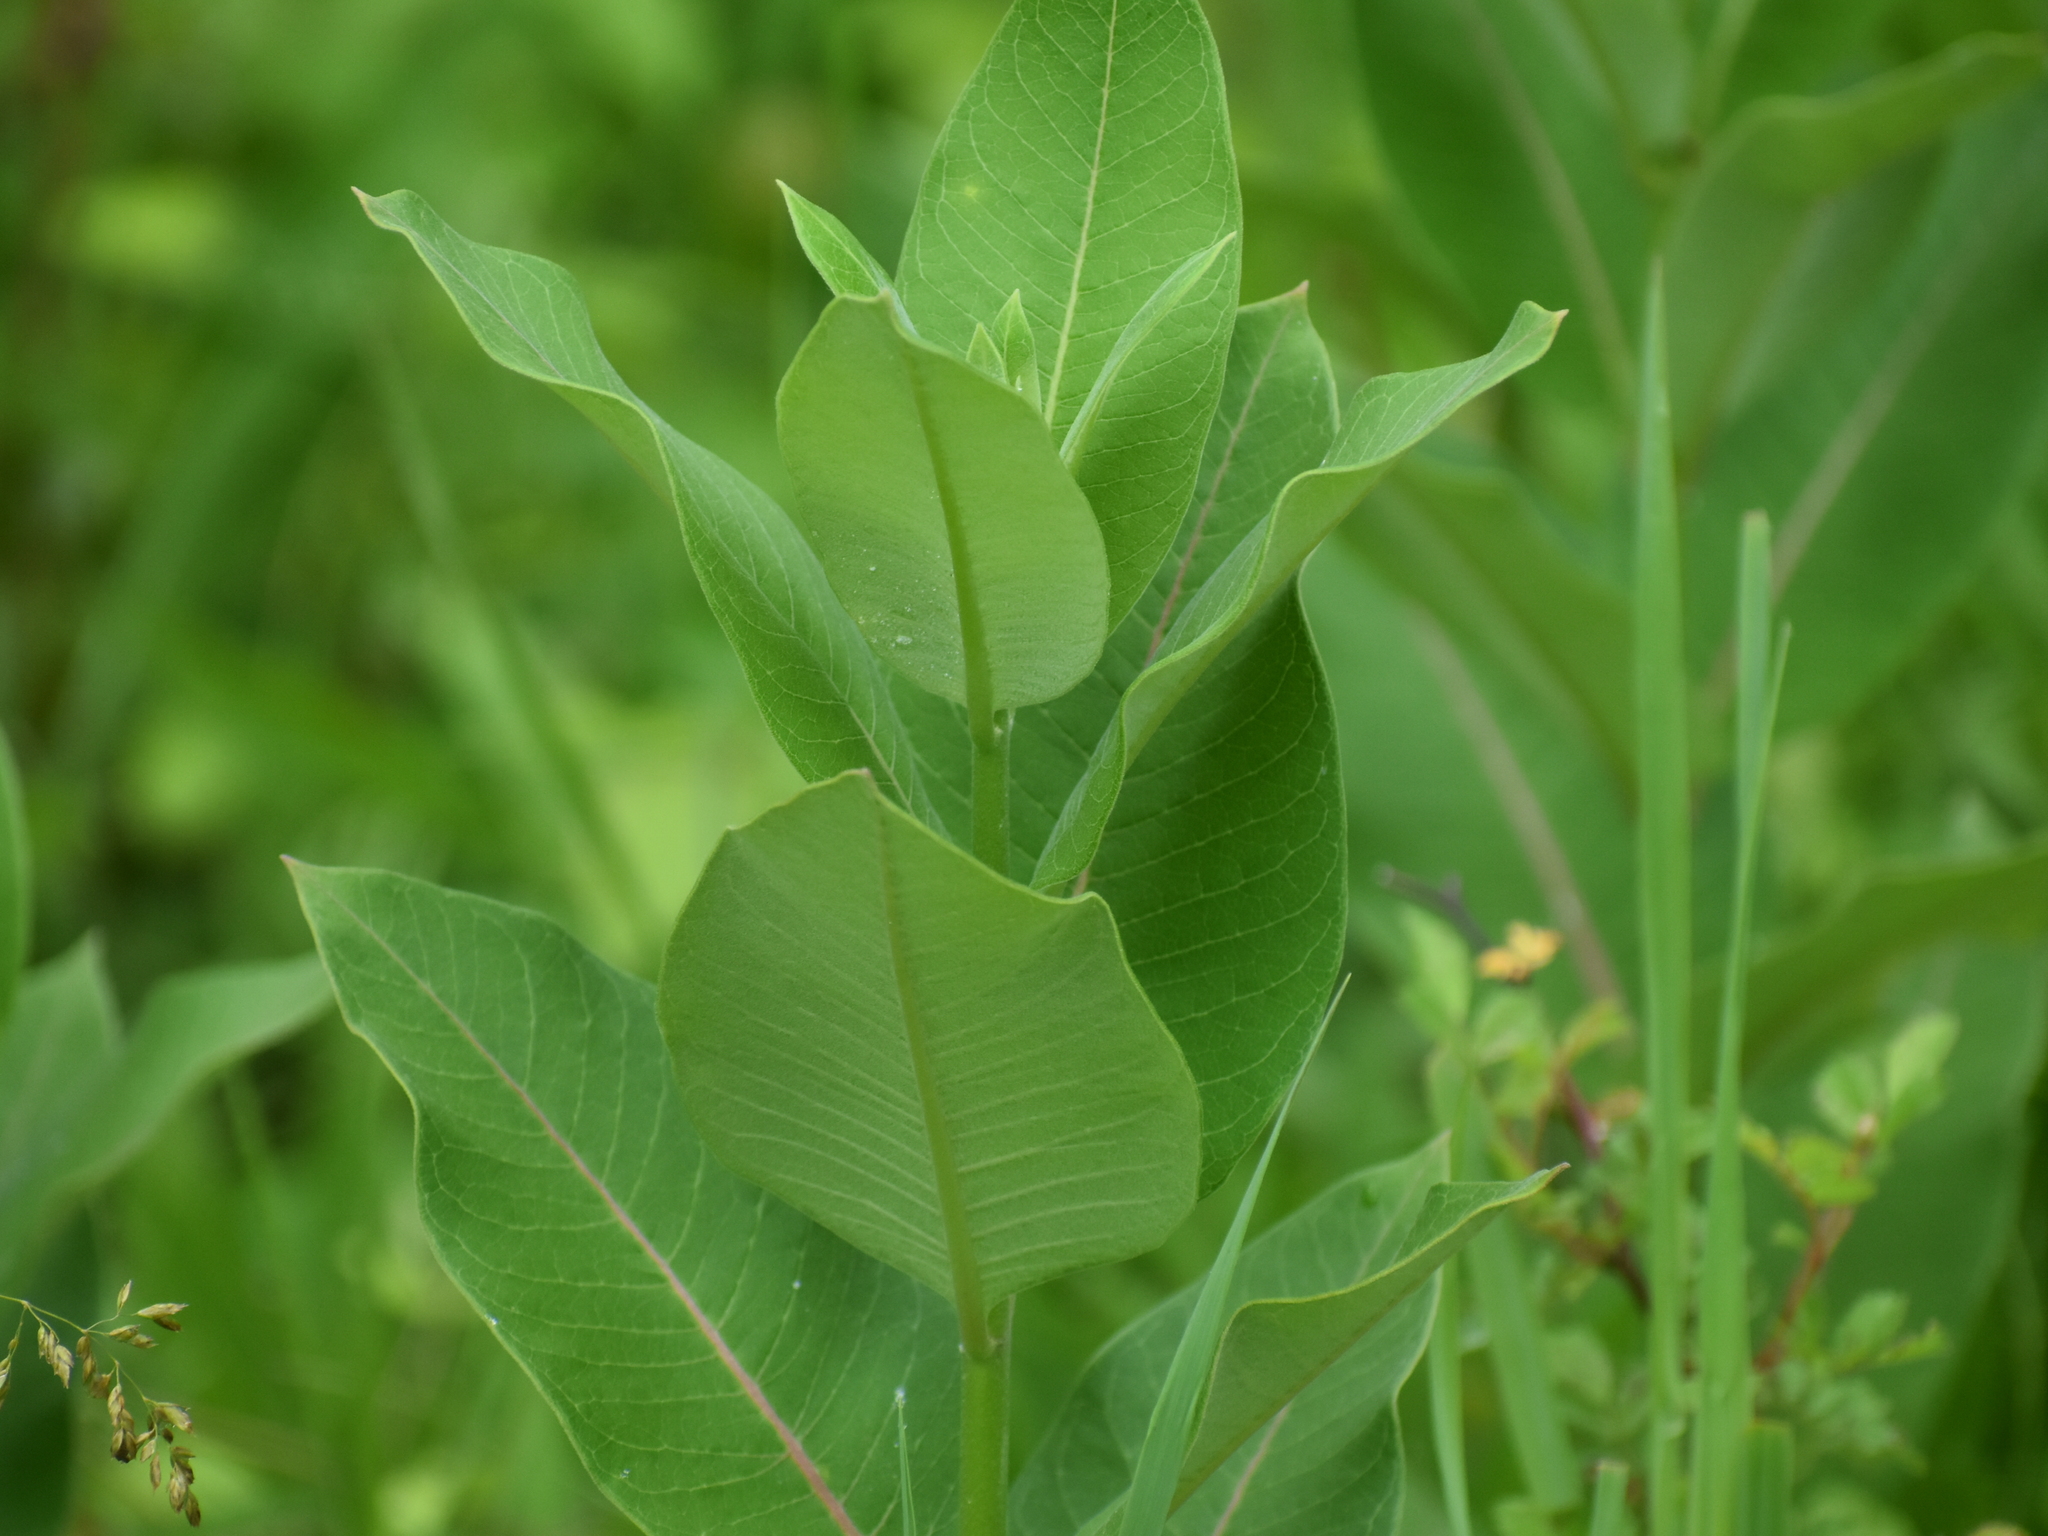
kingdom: Plantae
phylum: Tracheophyta
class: Magnoliopsida
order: Gentianales
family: Apocynaceae
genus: Asclepias
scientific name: Asclepias syriaca
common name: Common milkweed
